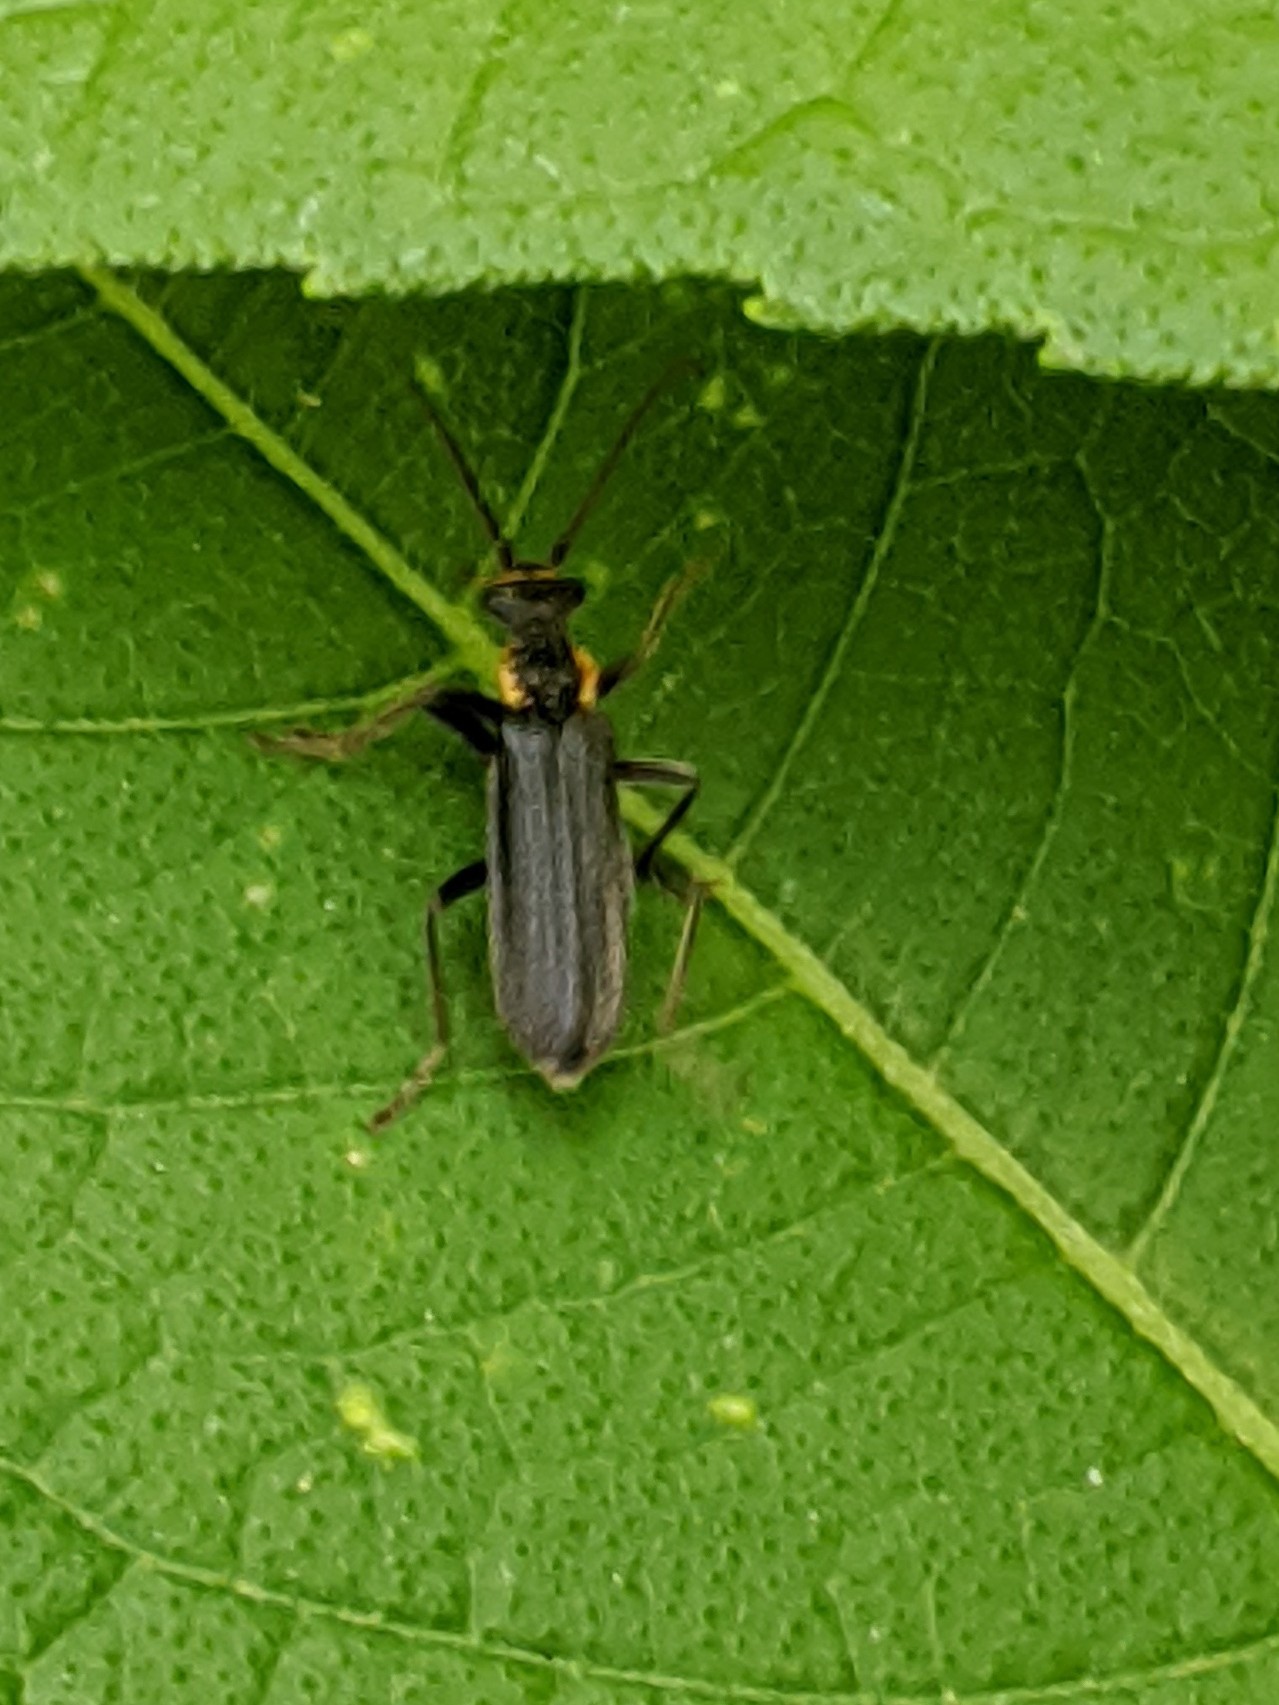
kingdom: Animalia
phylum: Arthropoda
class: Insecta
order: Coleoptera
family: Cantharidae
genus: Podabrus
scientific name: Podabrus rugosulus
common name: Wrinkled soldier beetle
